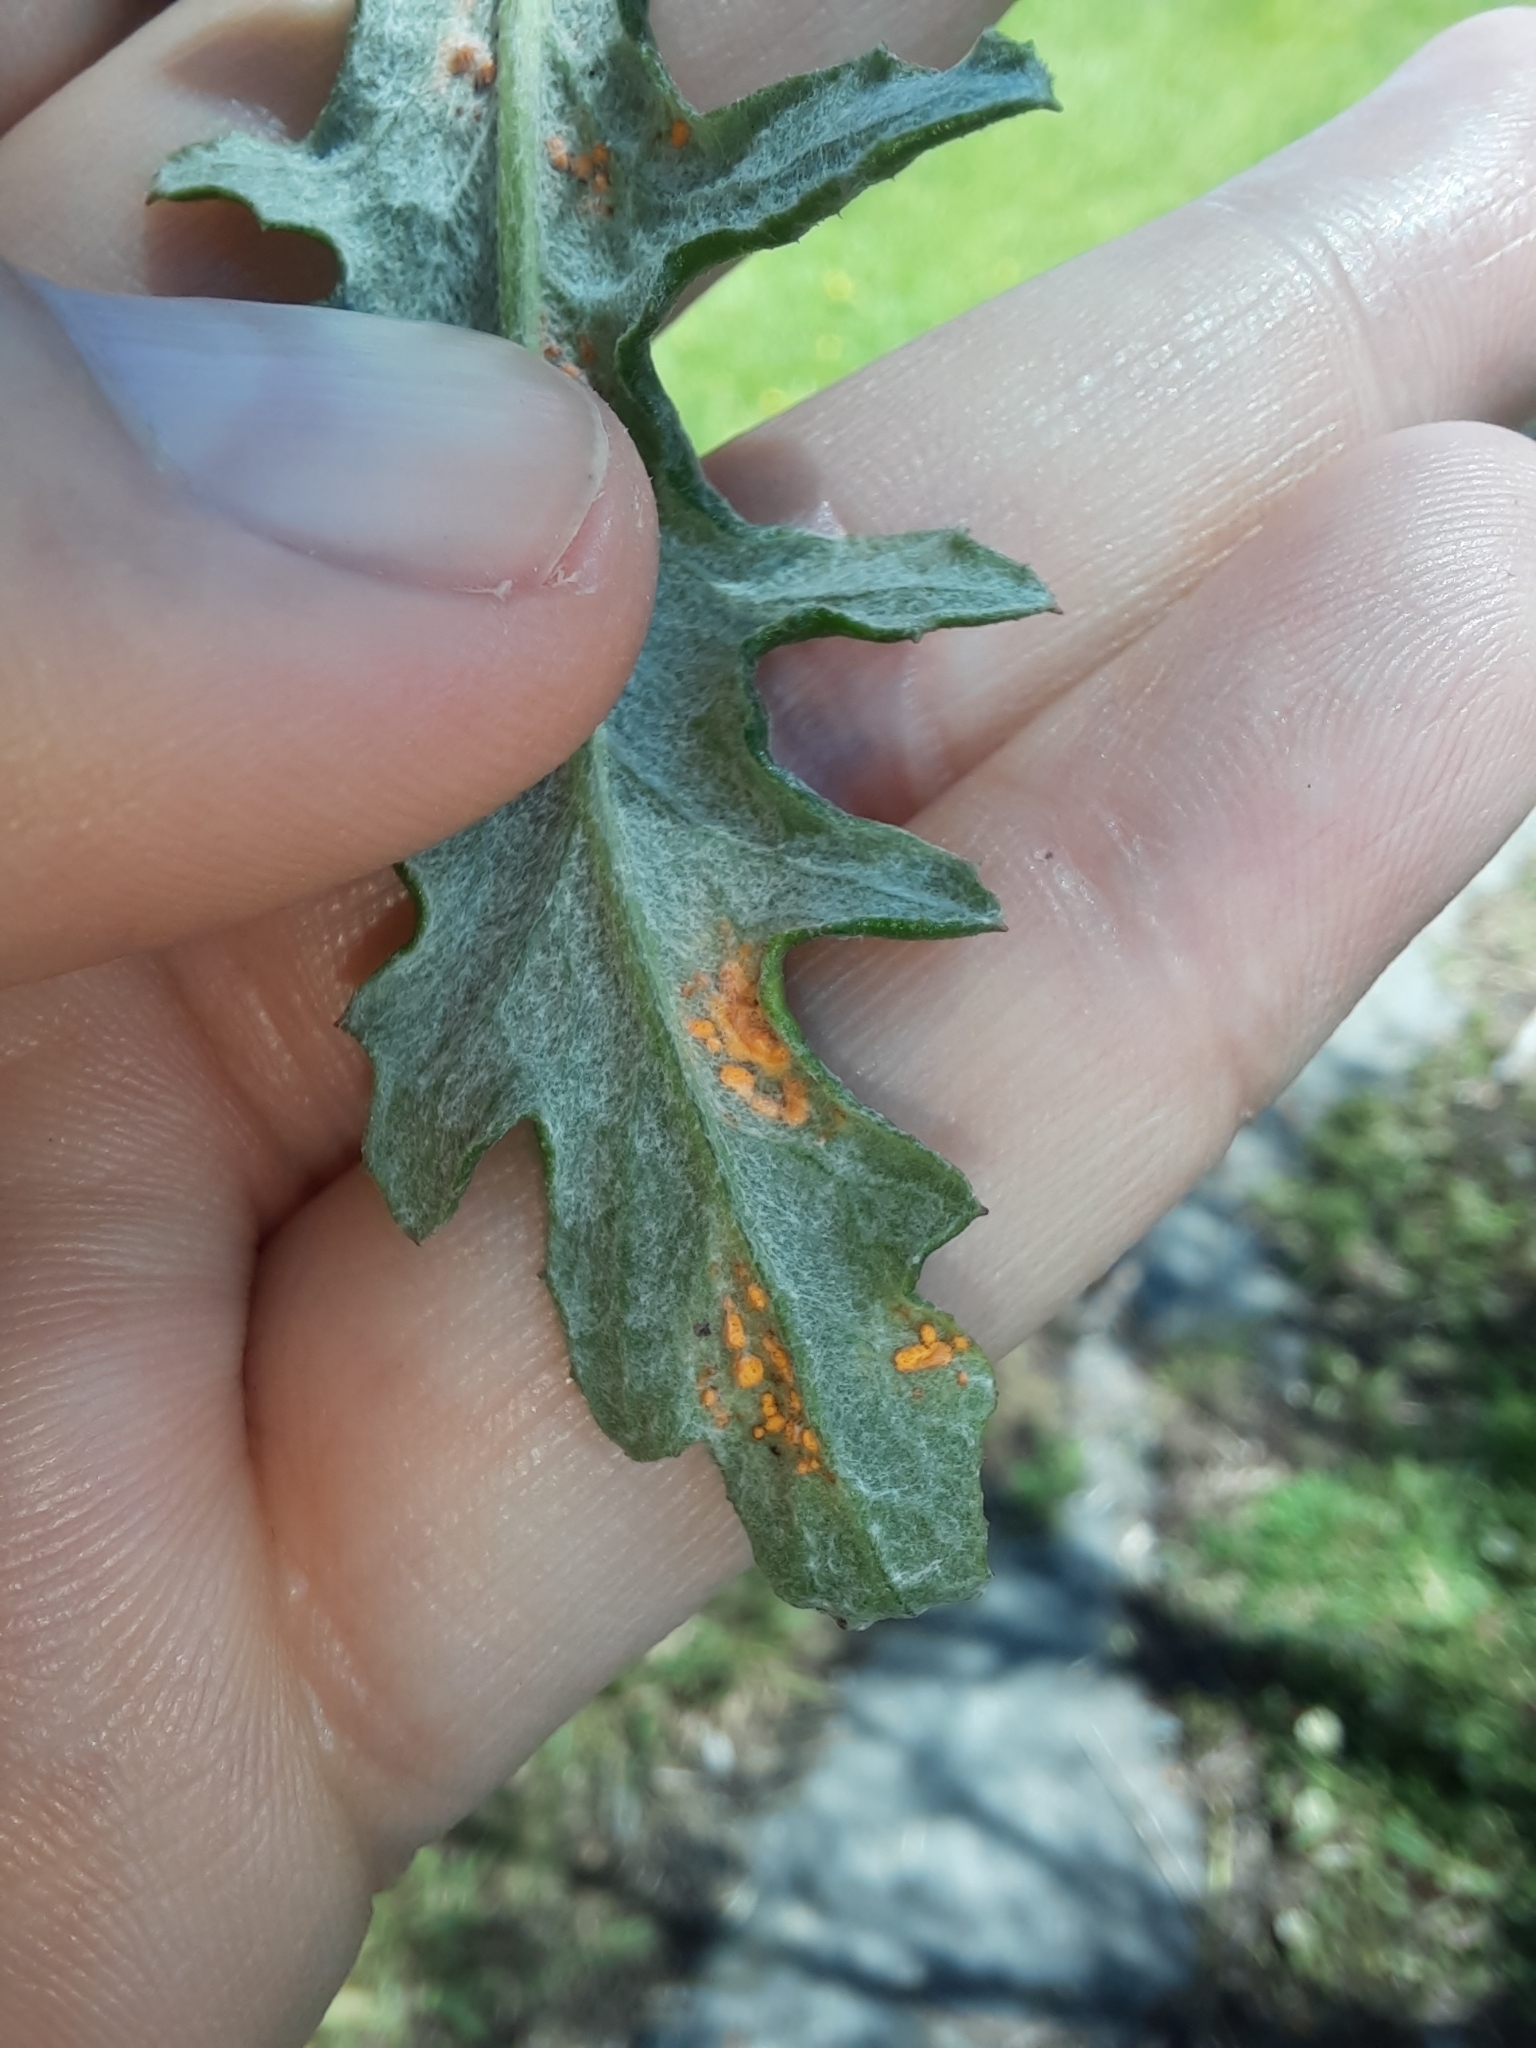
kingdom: Fungi
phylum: Basidiomycota
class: Pucciniomycetes
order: Pucciniales
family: Coleosporiaceae
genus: Coleosporium
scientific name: Coleosporium tussilaginis
